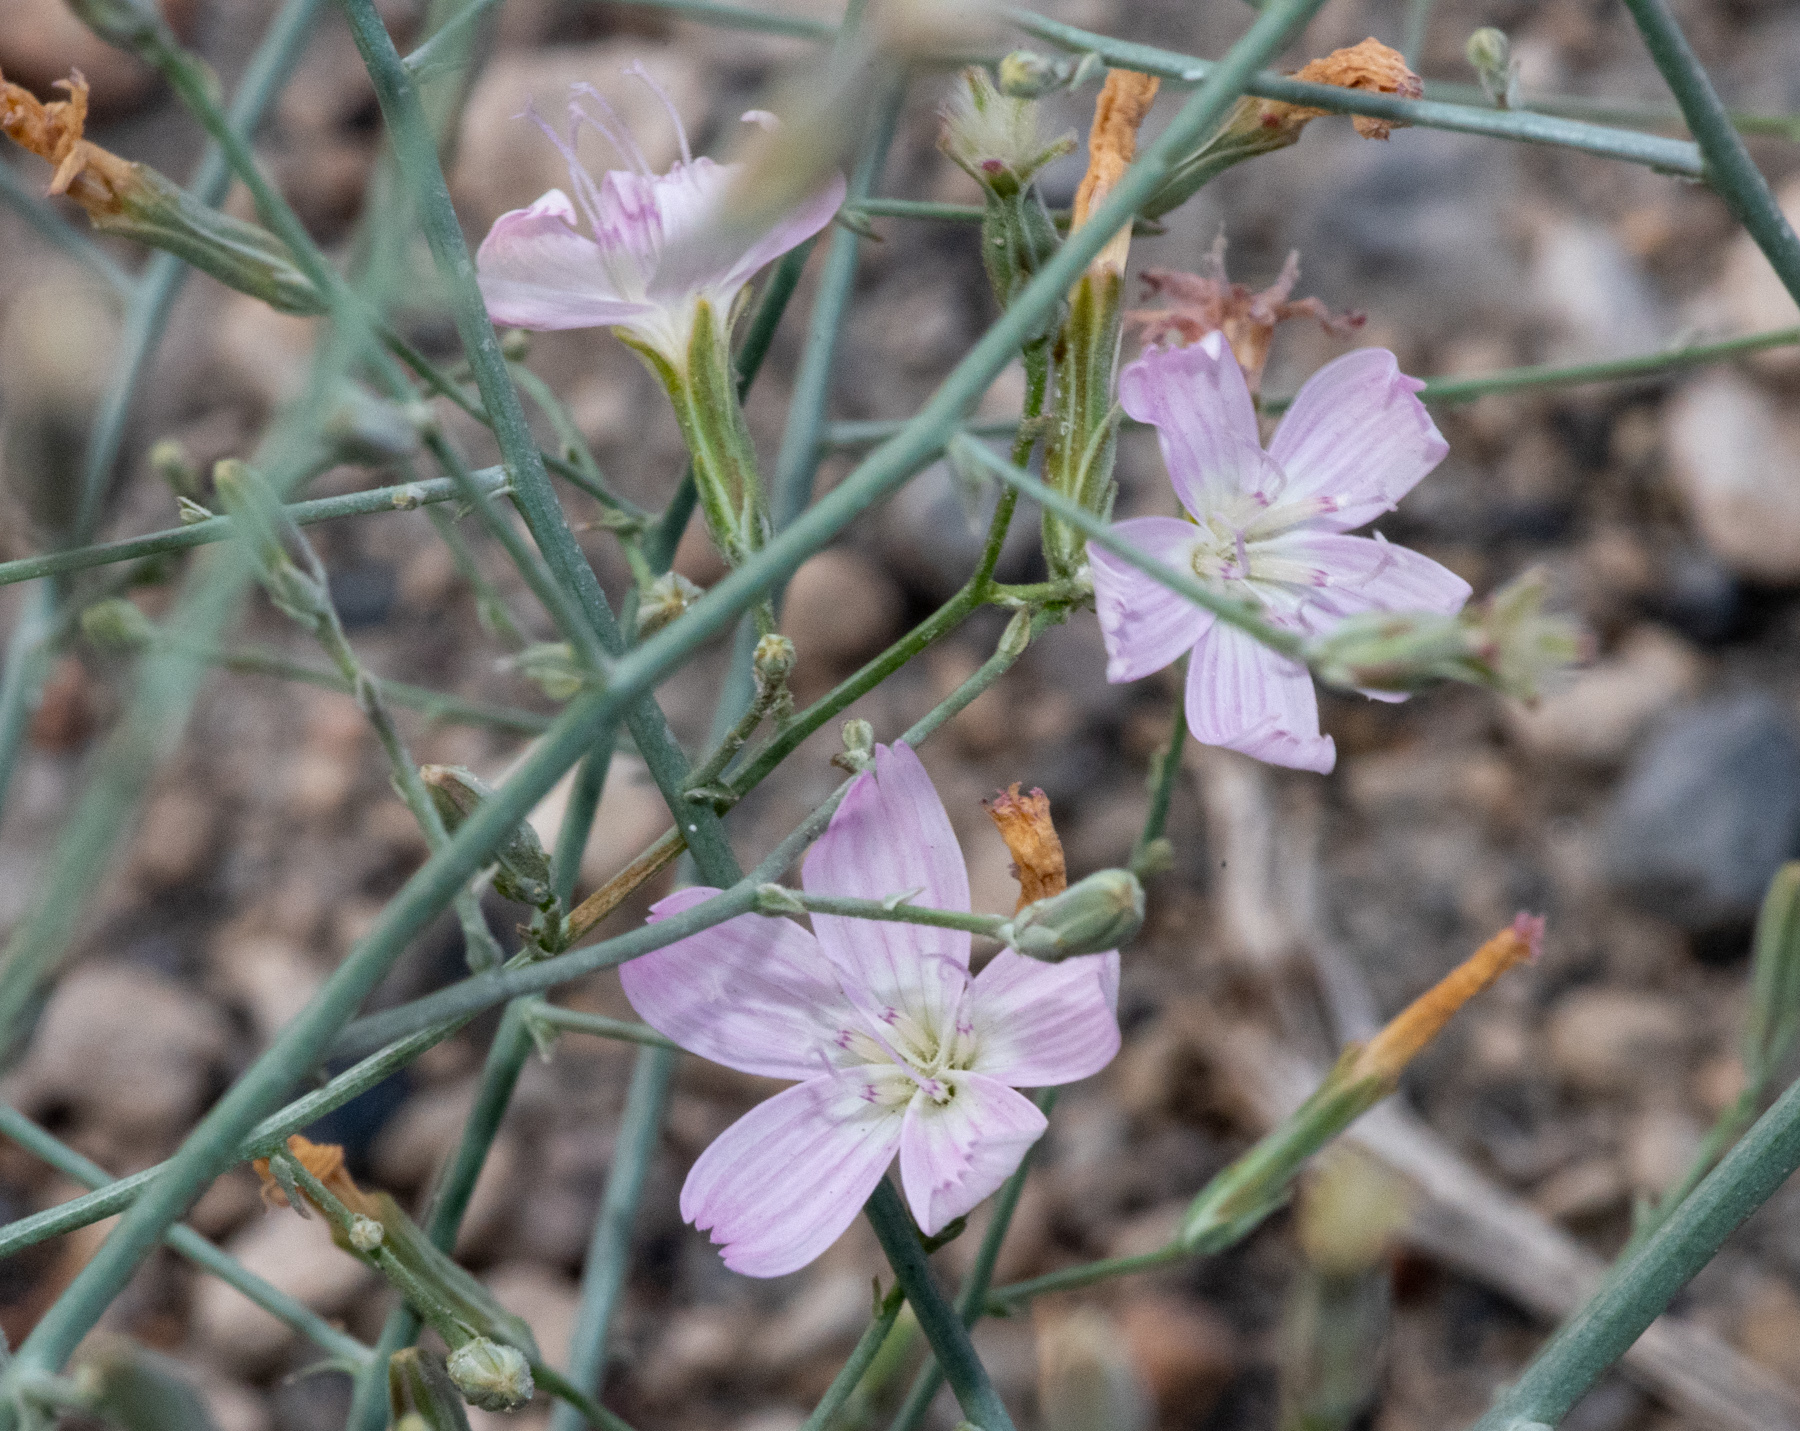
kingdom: Plantae
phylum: Tracheophyta
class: Magnoliopsida
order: Asterales
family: Asteraceae
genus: Stephanomeria
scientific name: Stephanomeria exigua
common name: Small wirelettuce
